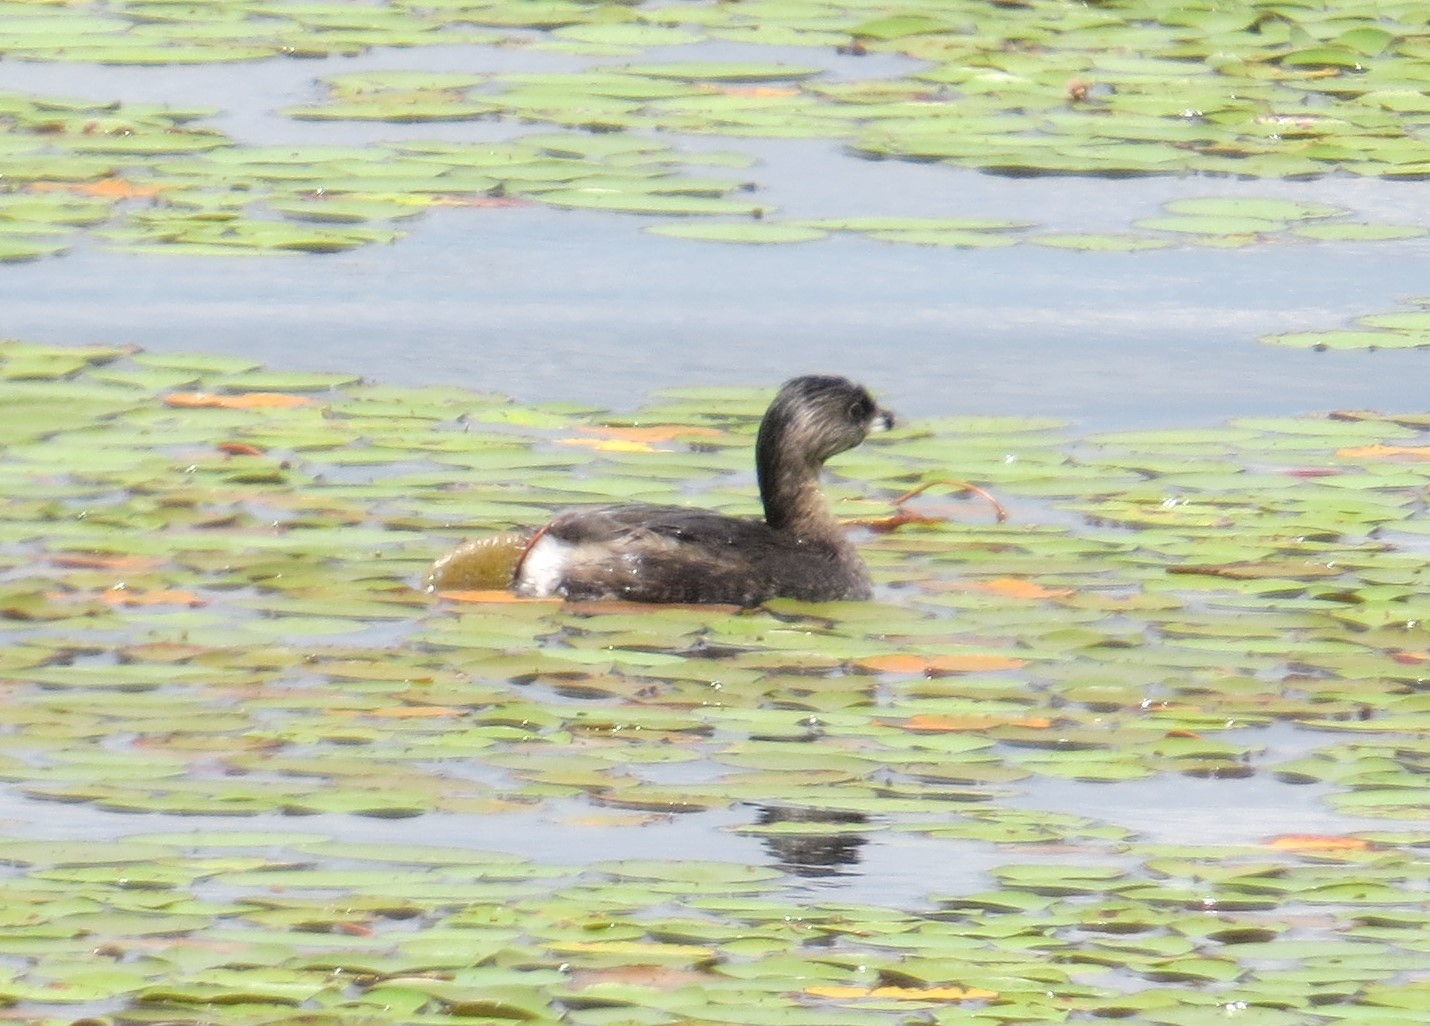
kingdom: Animalia
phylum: Chordata
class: Aves
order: Podicipediformes
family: Podicipedidae
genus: Podilymbus
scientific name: Podilymbus podiceps
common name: Pied-billed grebe
